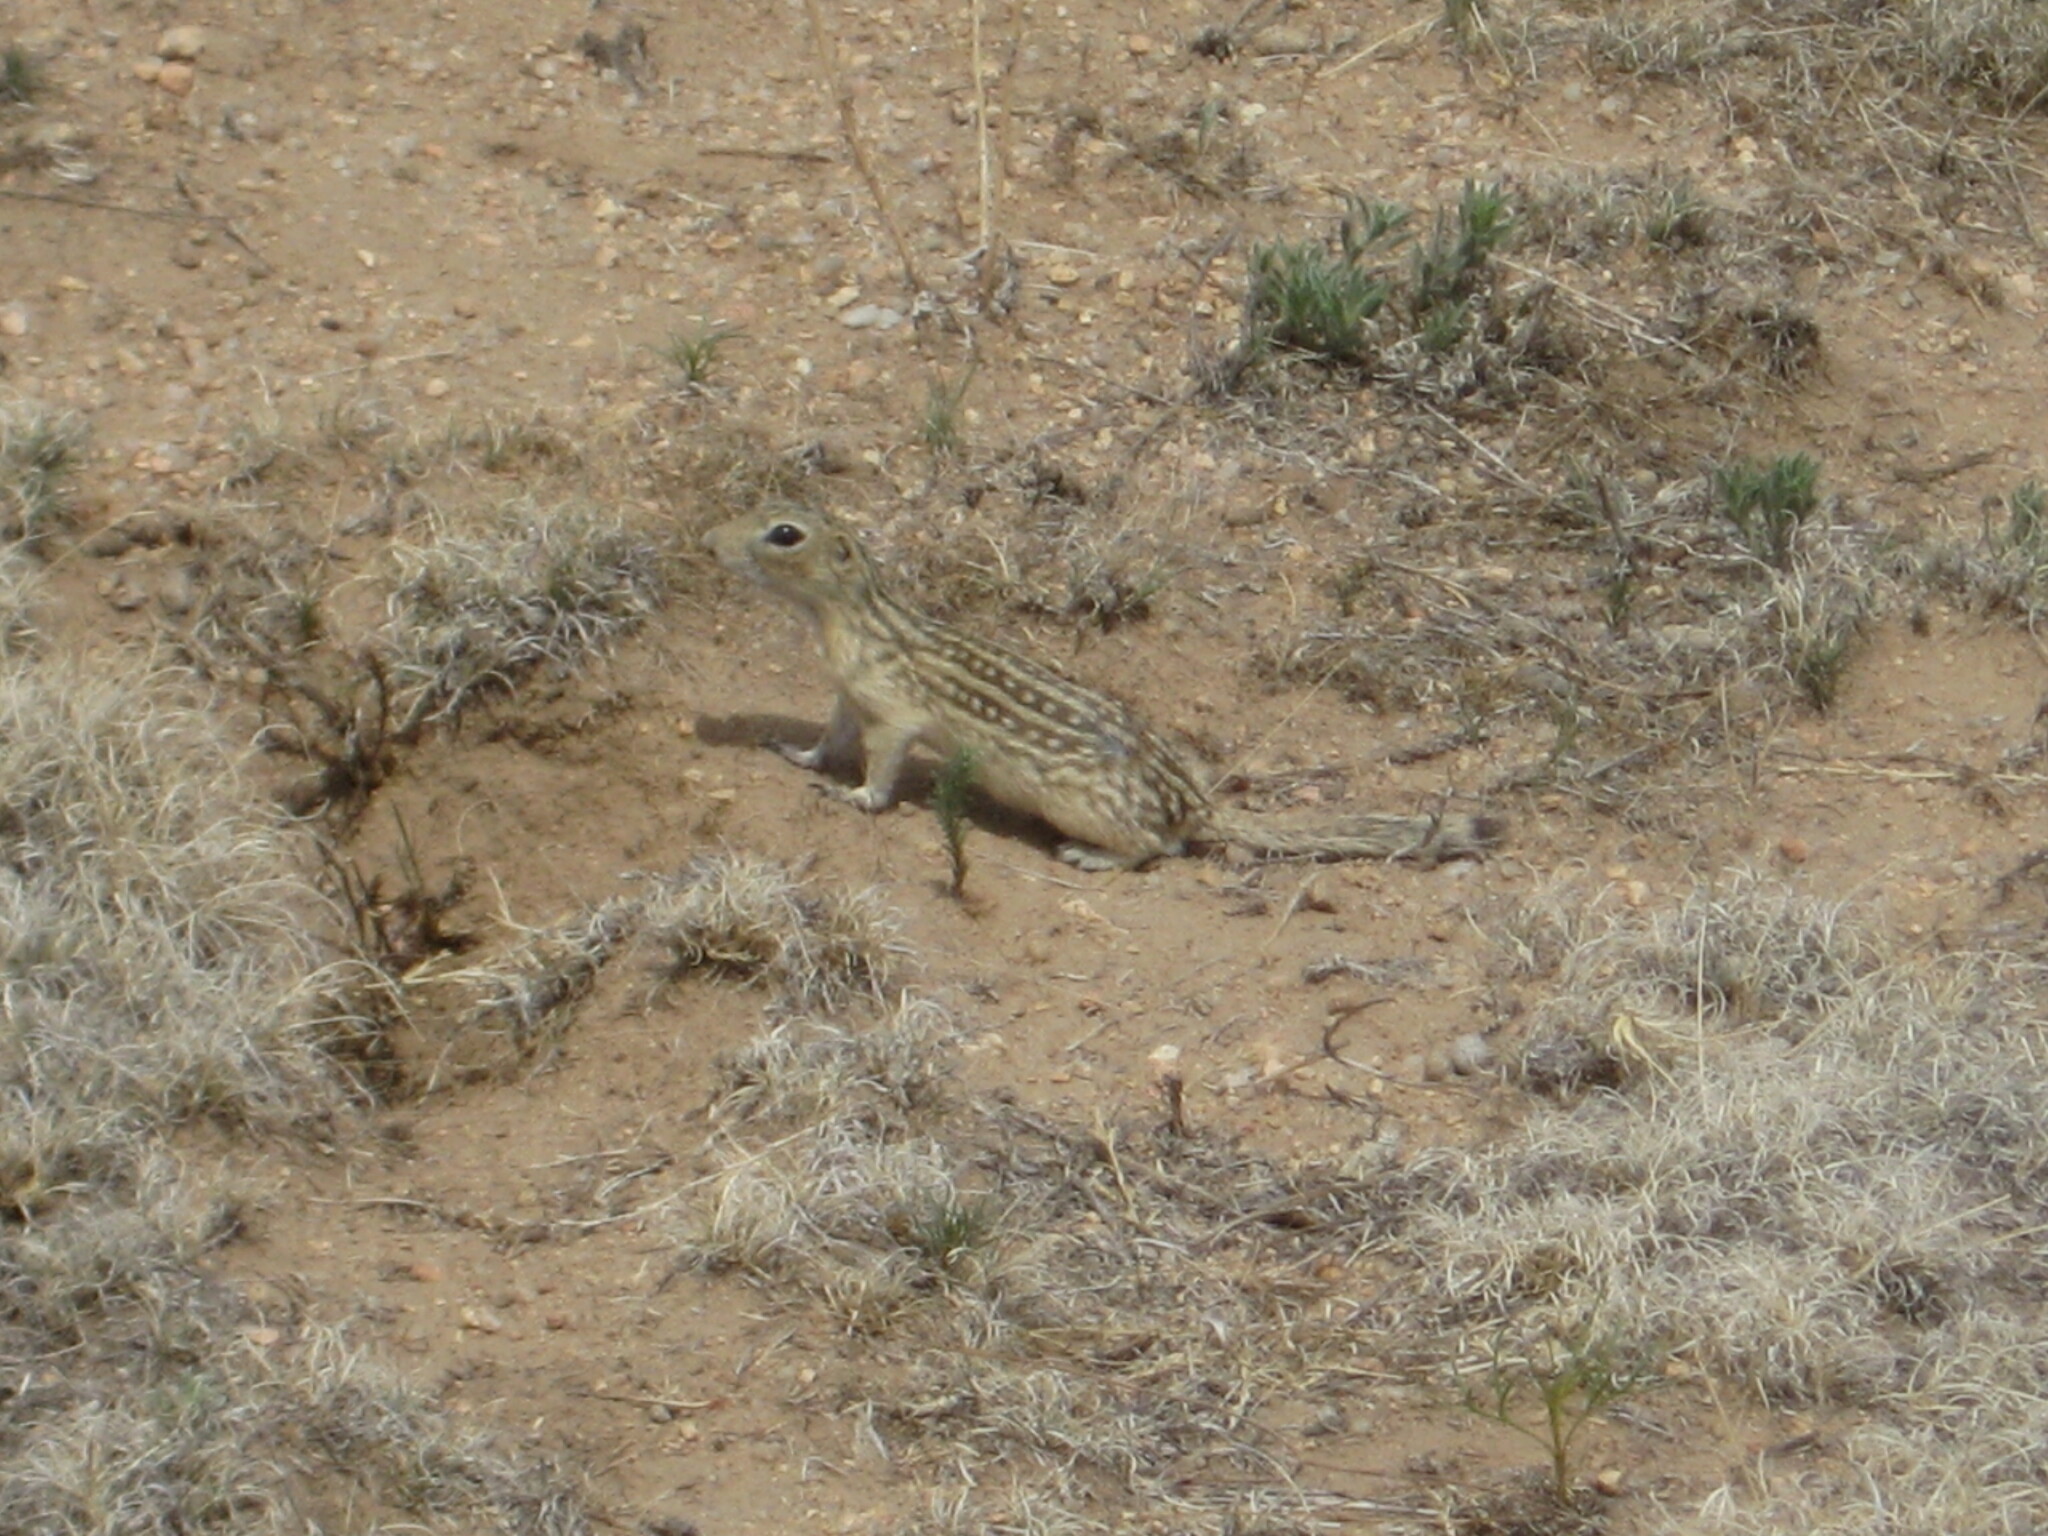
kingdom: Animalia
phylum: Chordata
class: Mammalia
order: Rodentia
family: Sciuridae
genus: Ictidomys
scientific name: Ictidomys tridecemlineatus
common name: Thirteen-lined ground squirrel
